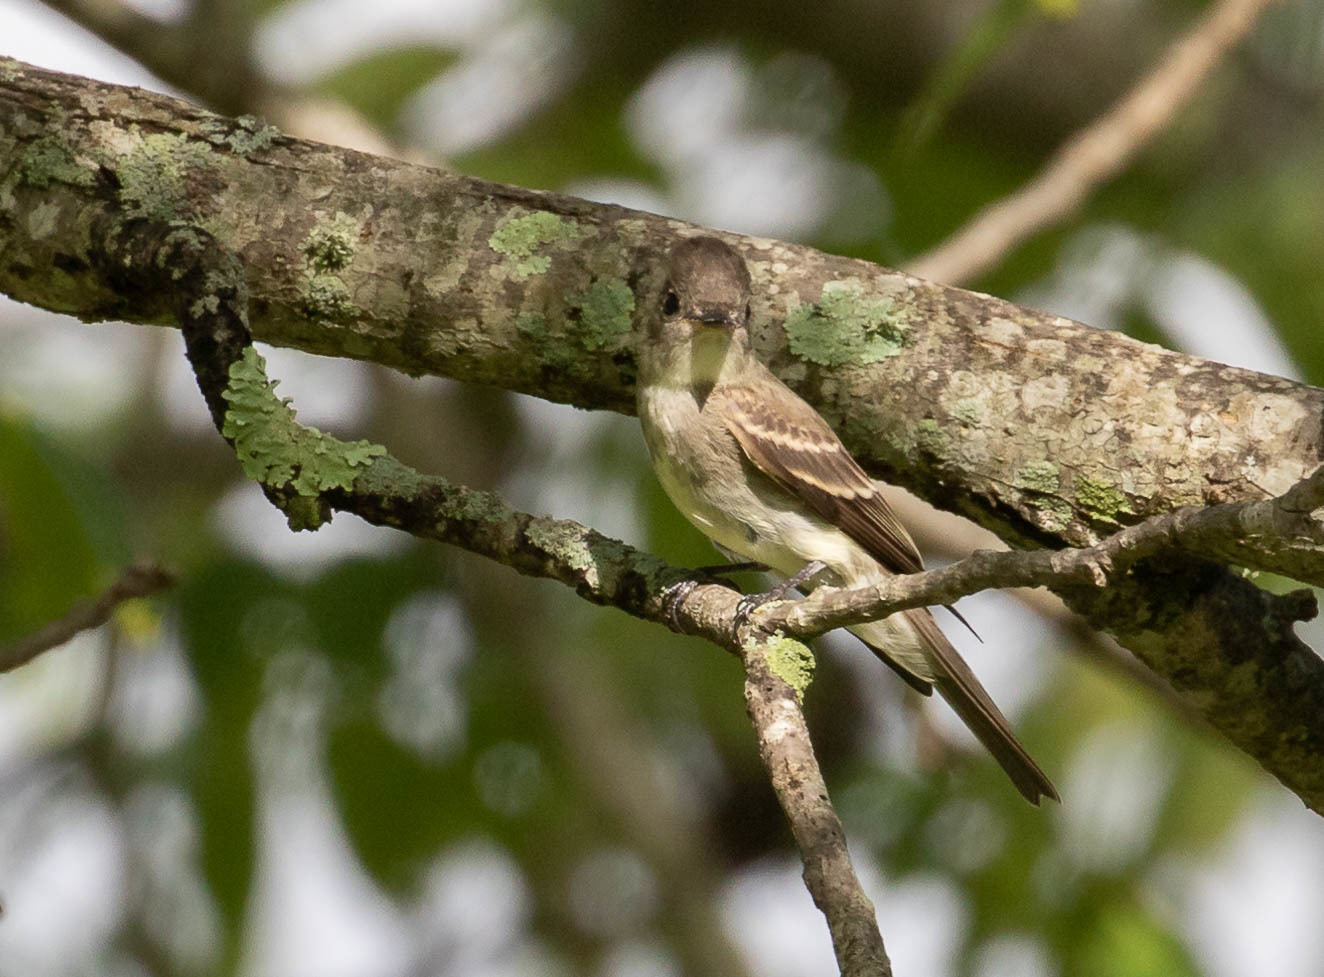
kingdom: Animalia
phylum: Chordata
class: Aves
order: Passeriformes
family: Tyrannidae
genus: Contopus
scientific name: Contopus virens
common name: Eastern wood-pewee
